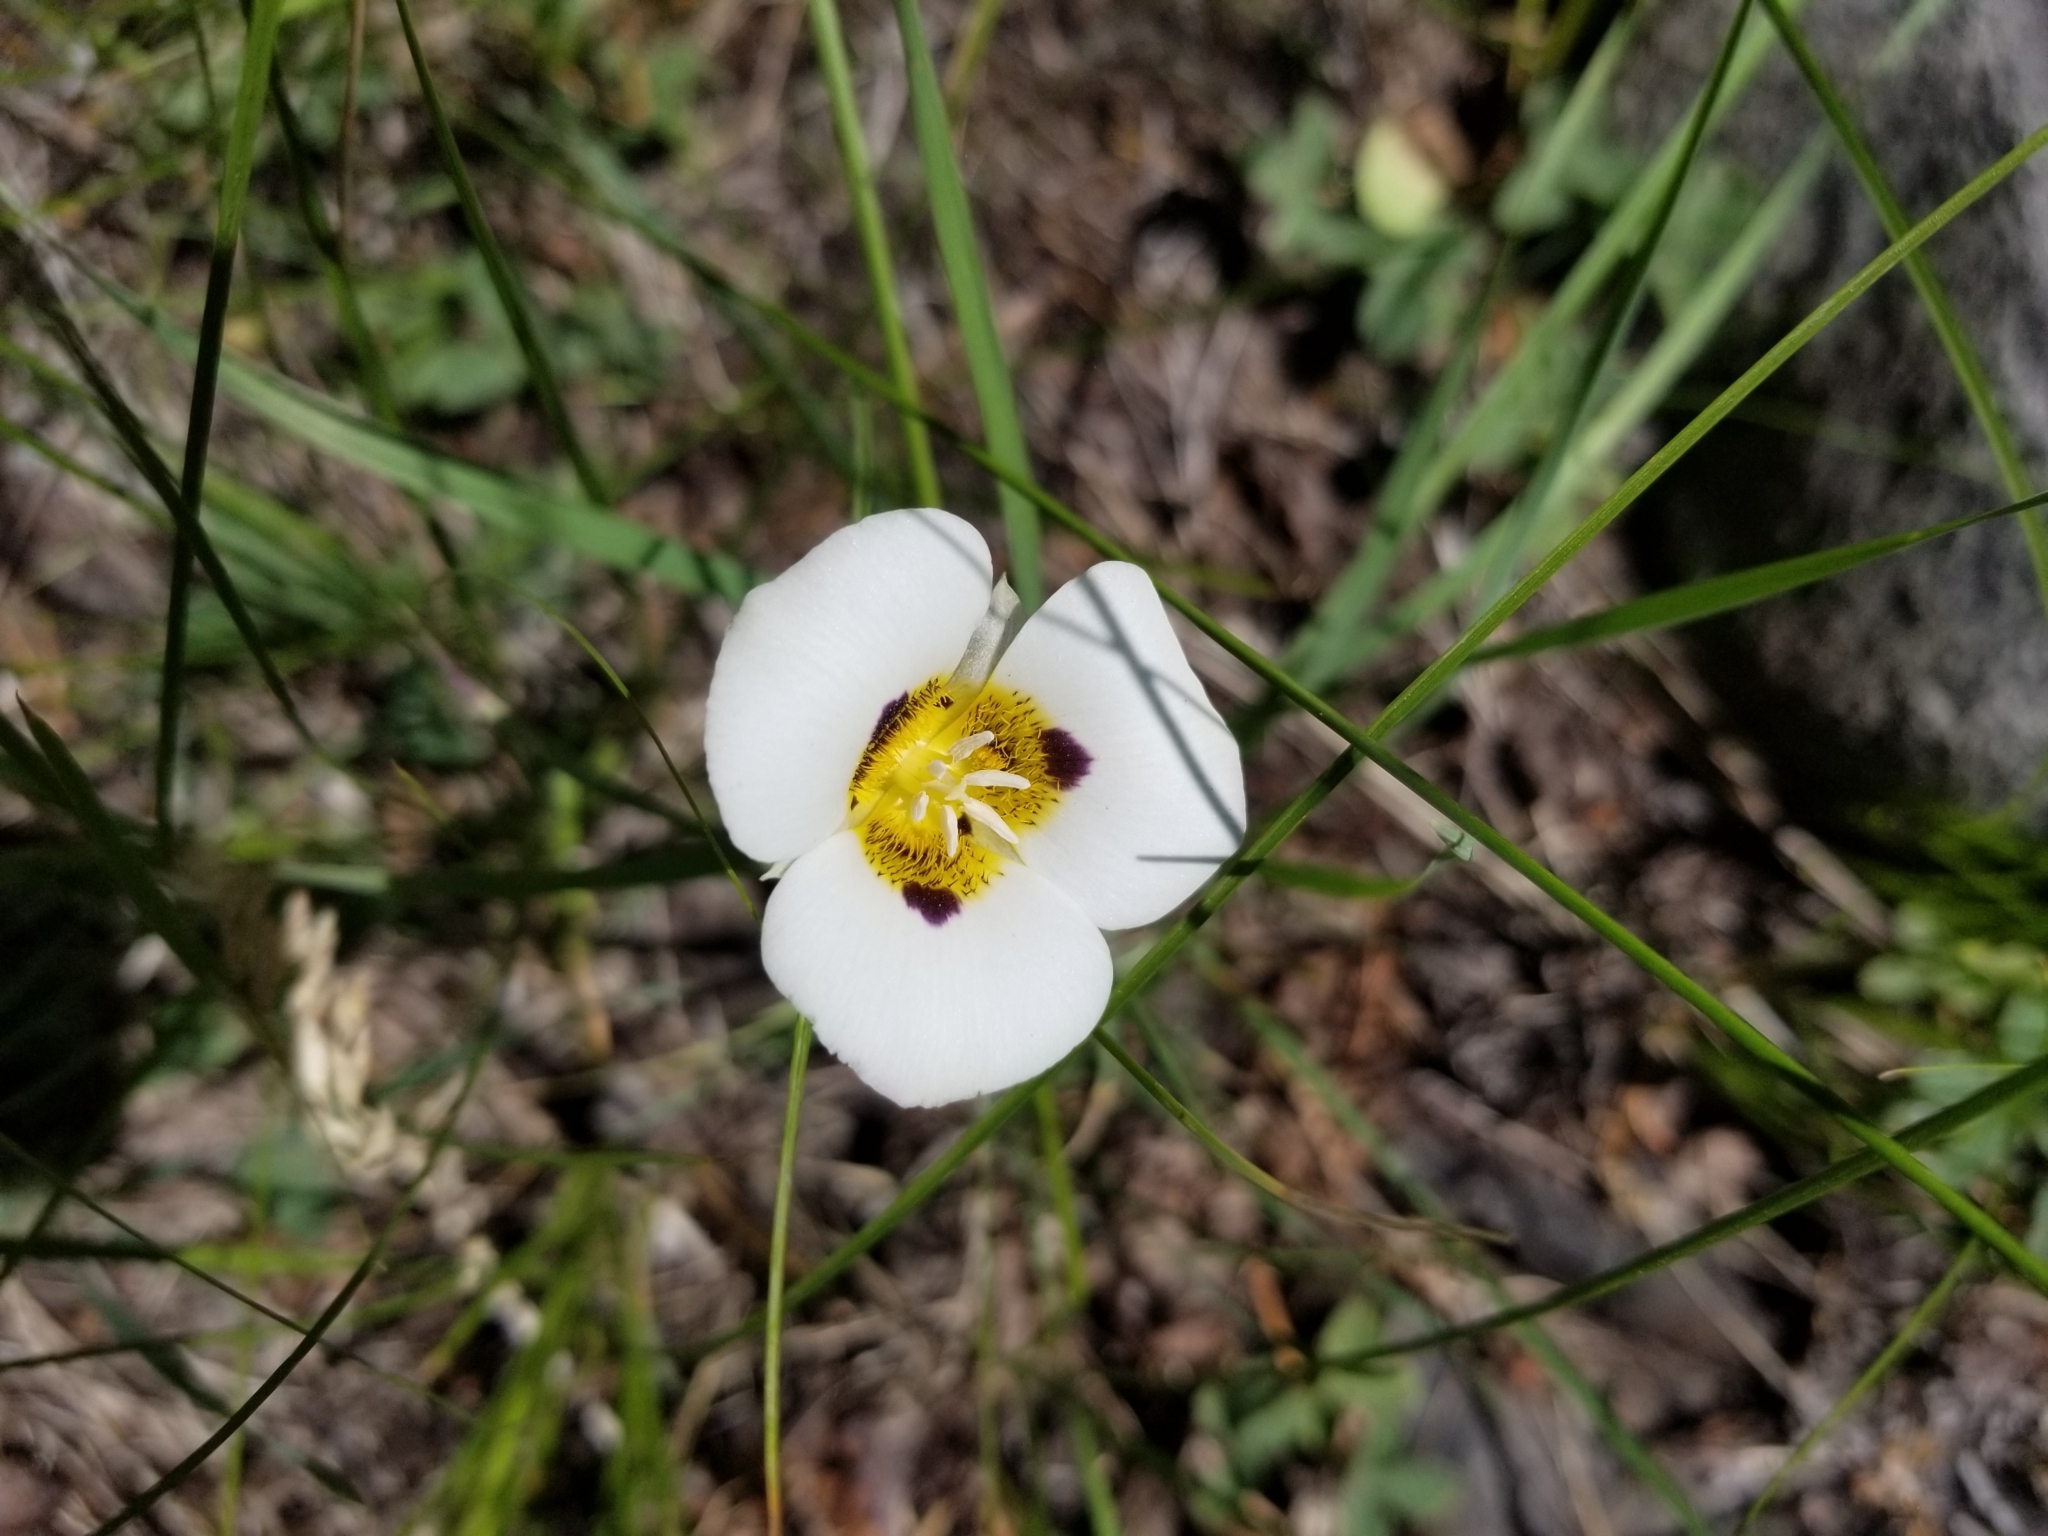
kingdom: Plantae
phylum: Tracheophyta
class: Liliopsida
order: Liliales
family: Liliaceae
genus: Calochortus
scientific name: Calochortus leichtlinii
